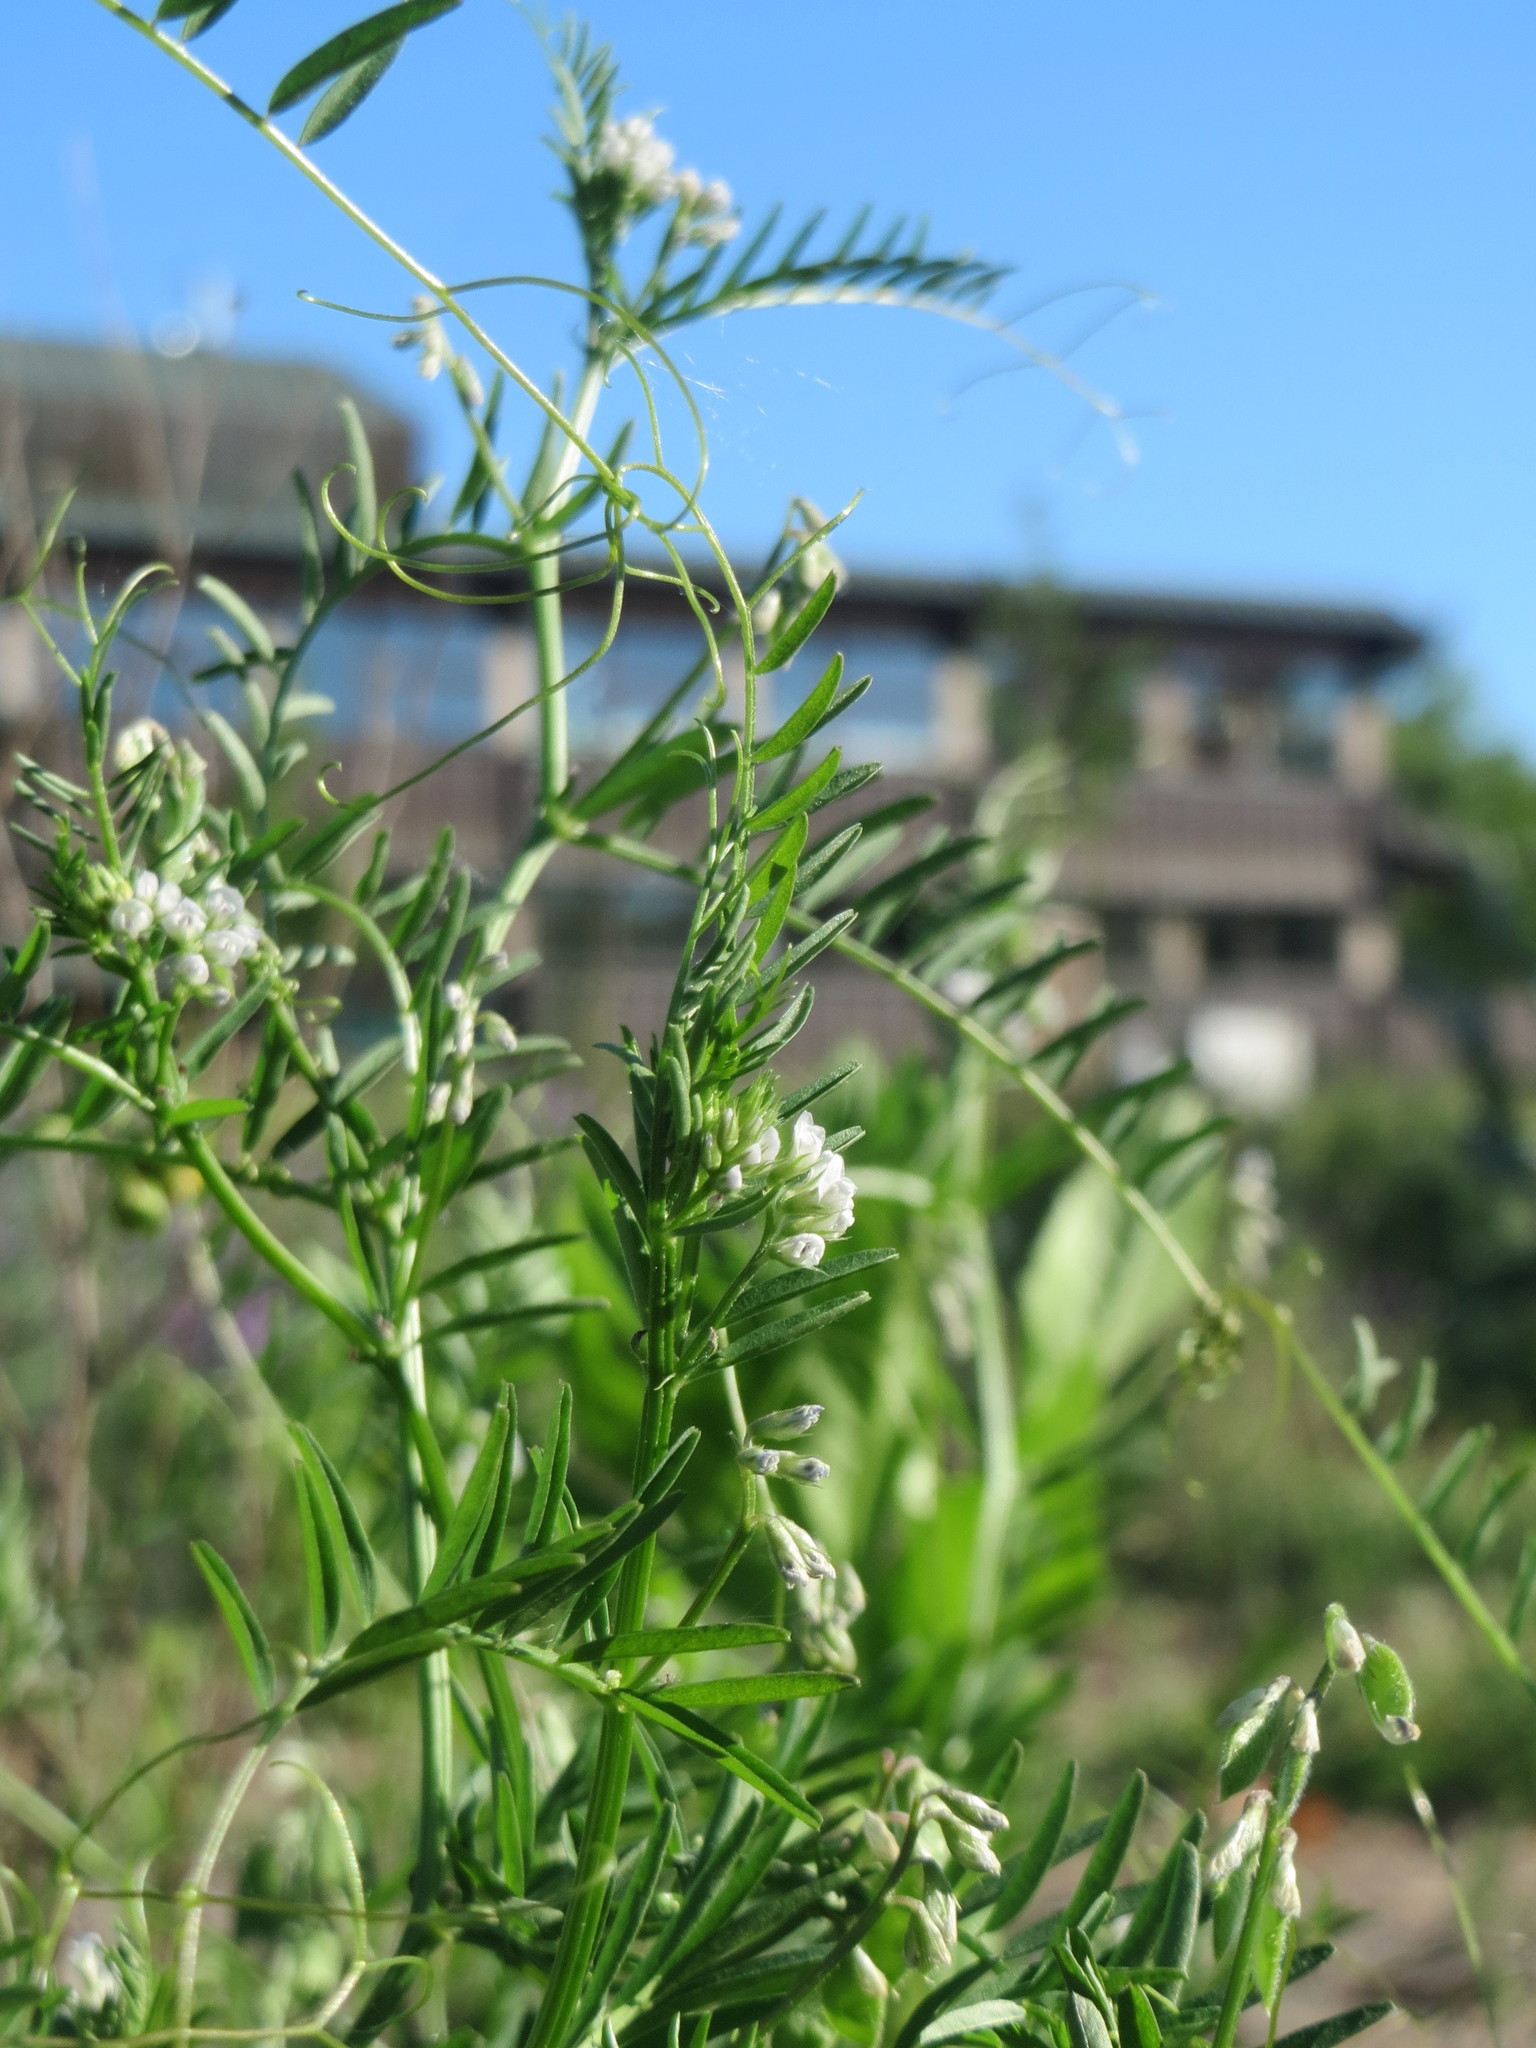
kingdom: Plantae
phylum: Tracheophyta
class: Magnoliopsida
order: Fabales
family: Fabaceae
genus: Vicia
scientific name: Vicia hirsuta
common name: Tiny vetch
